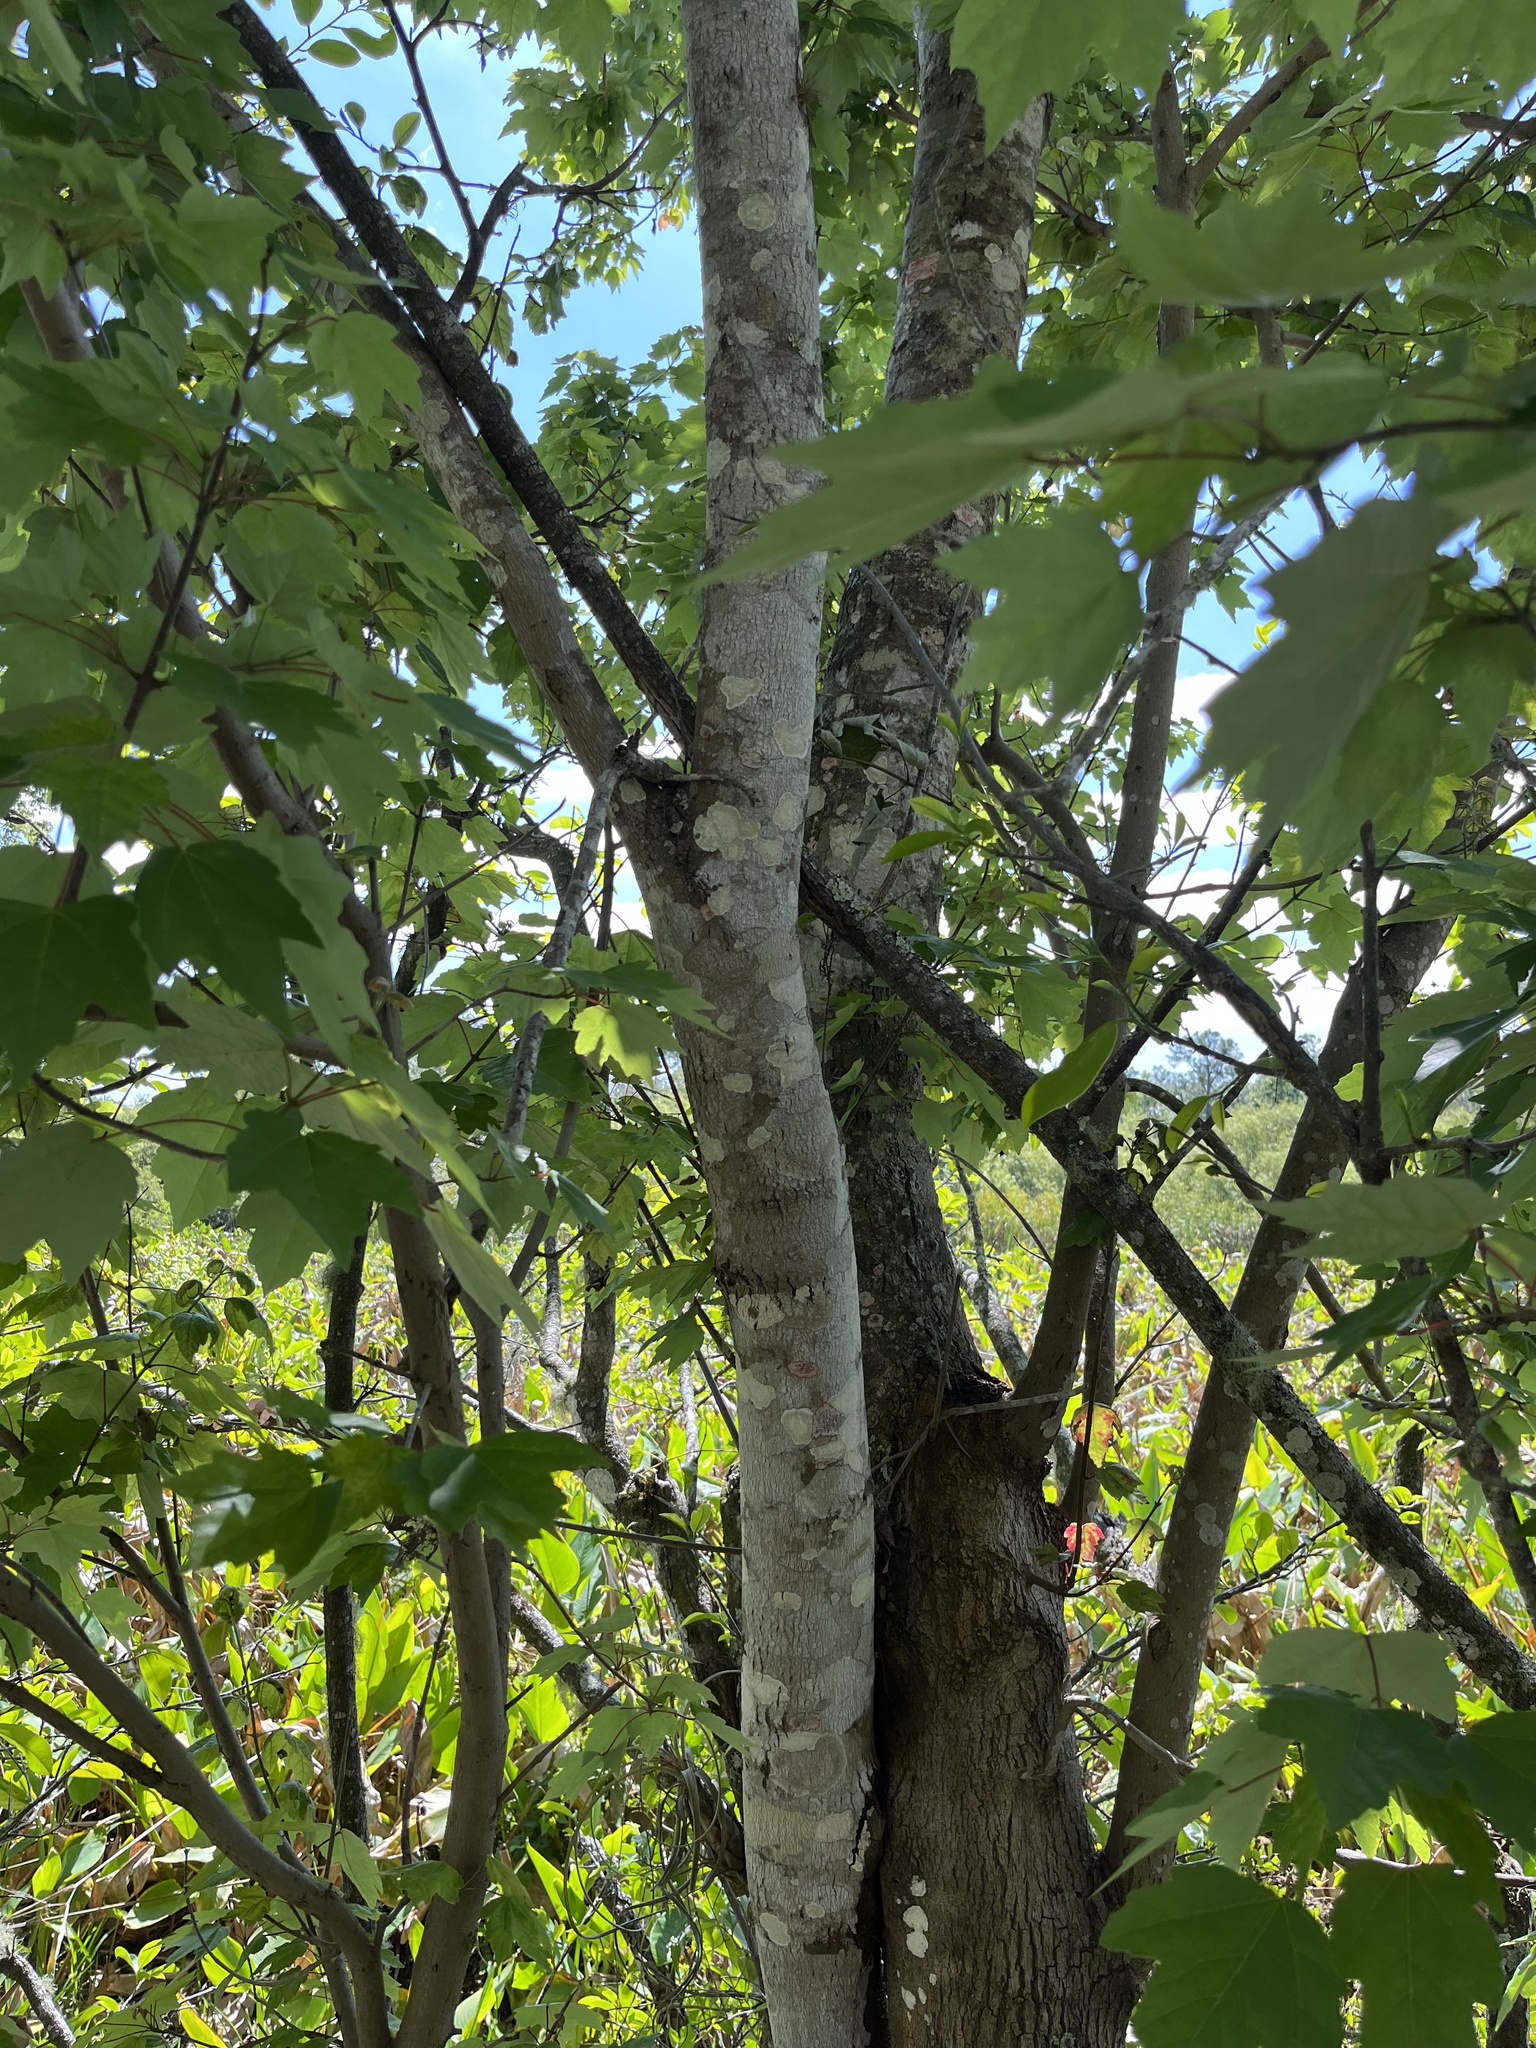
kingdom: Plantae
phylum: Tracheophyta
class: Magnoliopsida
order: Sapindales
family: Sapindaceae
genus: Acer
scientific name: Acer rubrum
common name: Red maple
